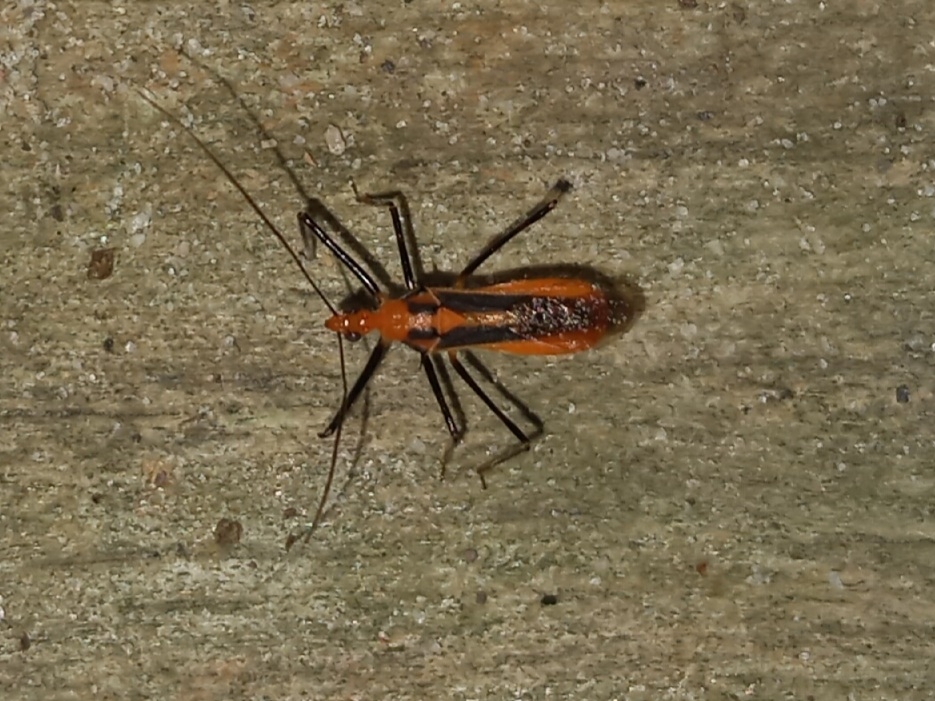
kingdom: Animalia
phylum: Arthropoda
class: Insecta
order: Hemiptera
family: Reduviidae
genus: Repipta
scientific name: Repipta taurus
